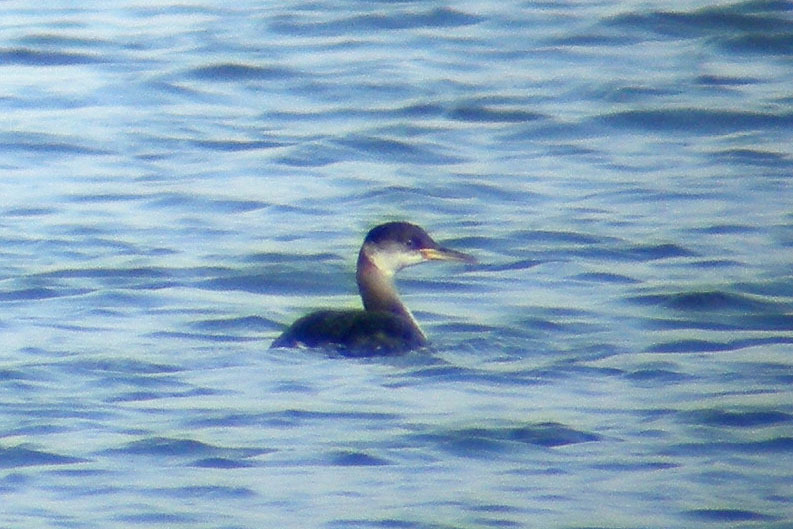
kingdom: Animalia
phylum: Chordata
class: Aves
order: Podicipediformes
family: Podicipedidae
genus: Podiceps
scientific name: Podiceps grisegena
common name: Red-necked grebe
